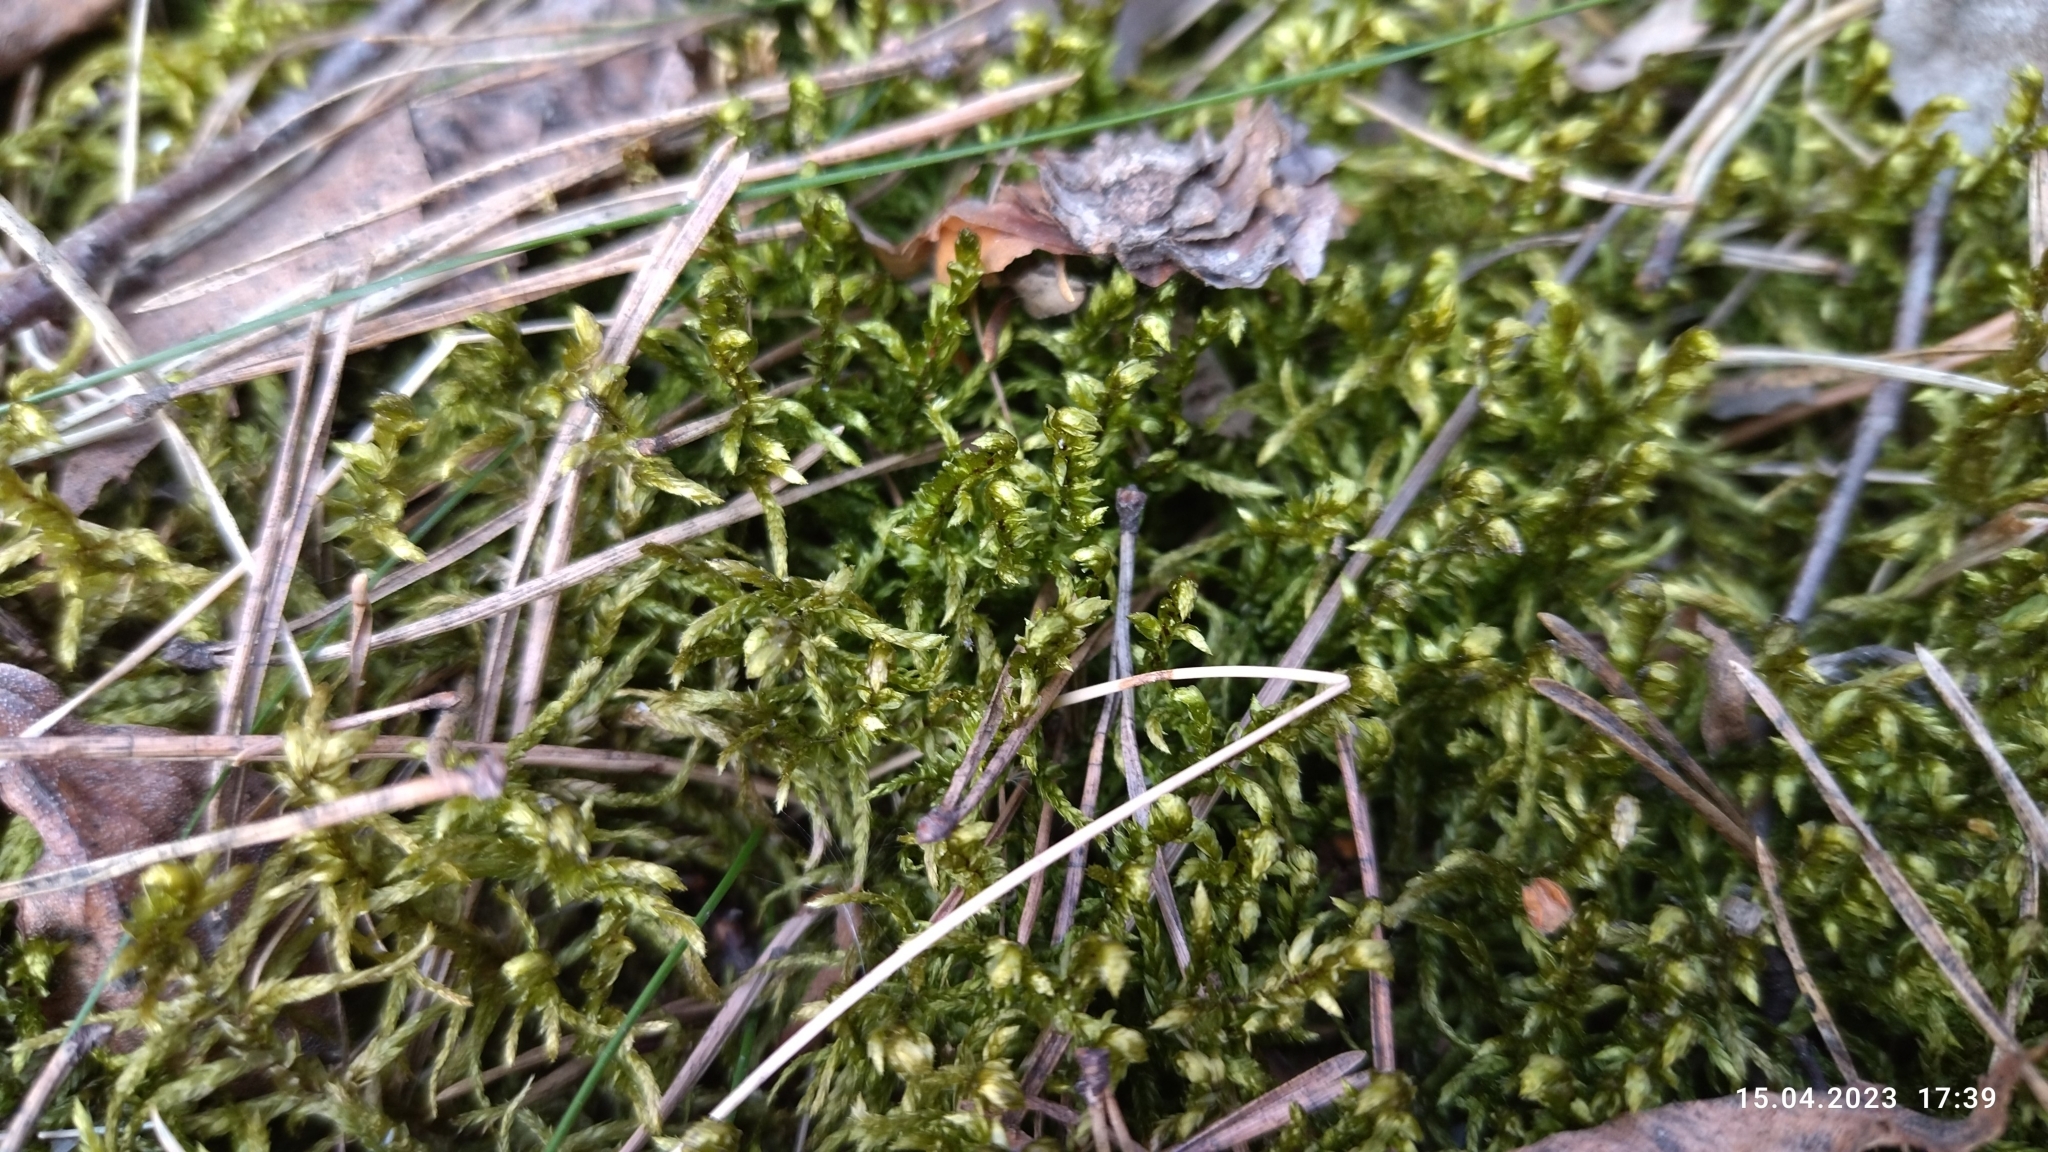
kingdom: Plantae
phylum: Bryophyta
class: Bryopsida
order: Hypnales
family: Hylocomiaceae
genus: Pleurozium
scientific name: Pleurozium schreberi
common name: Red-stemmed feather moss
